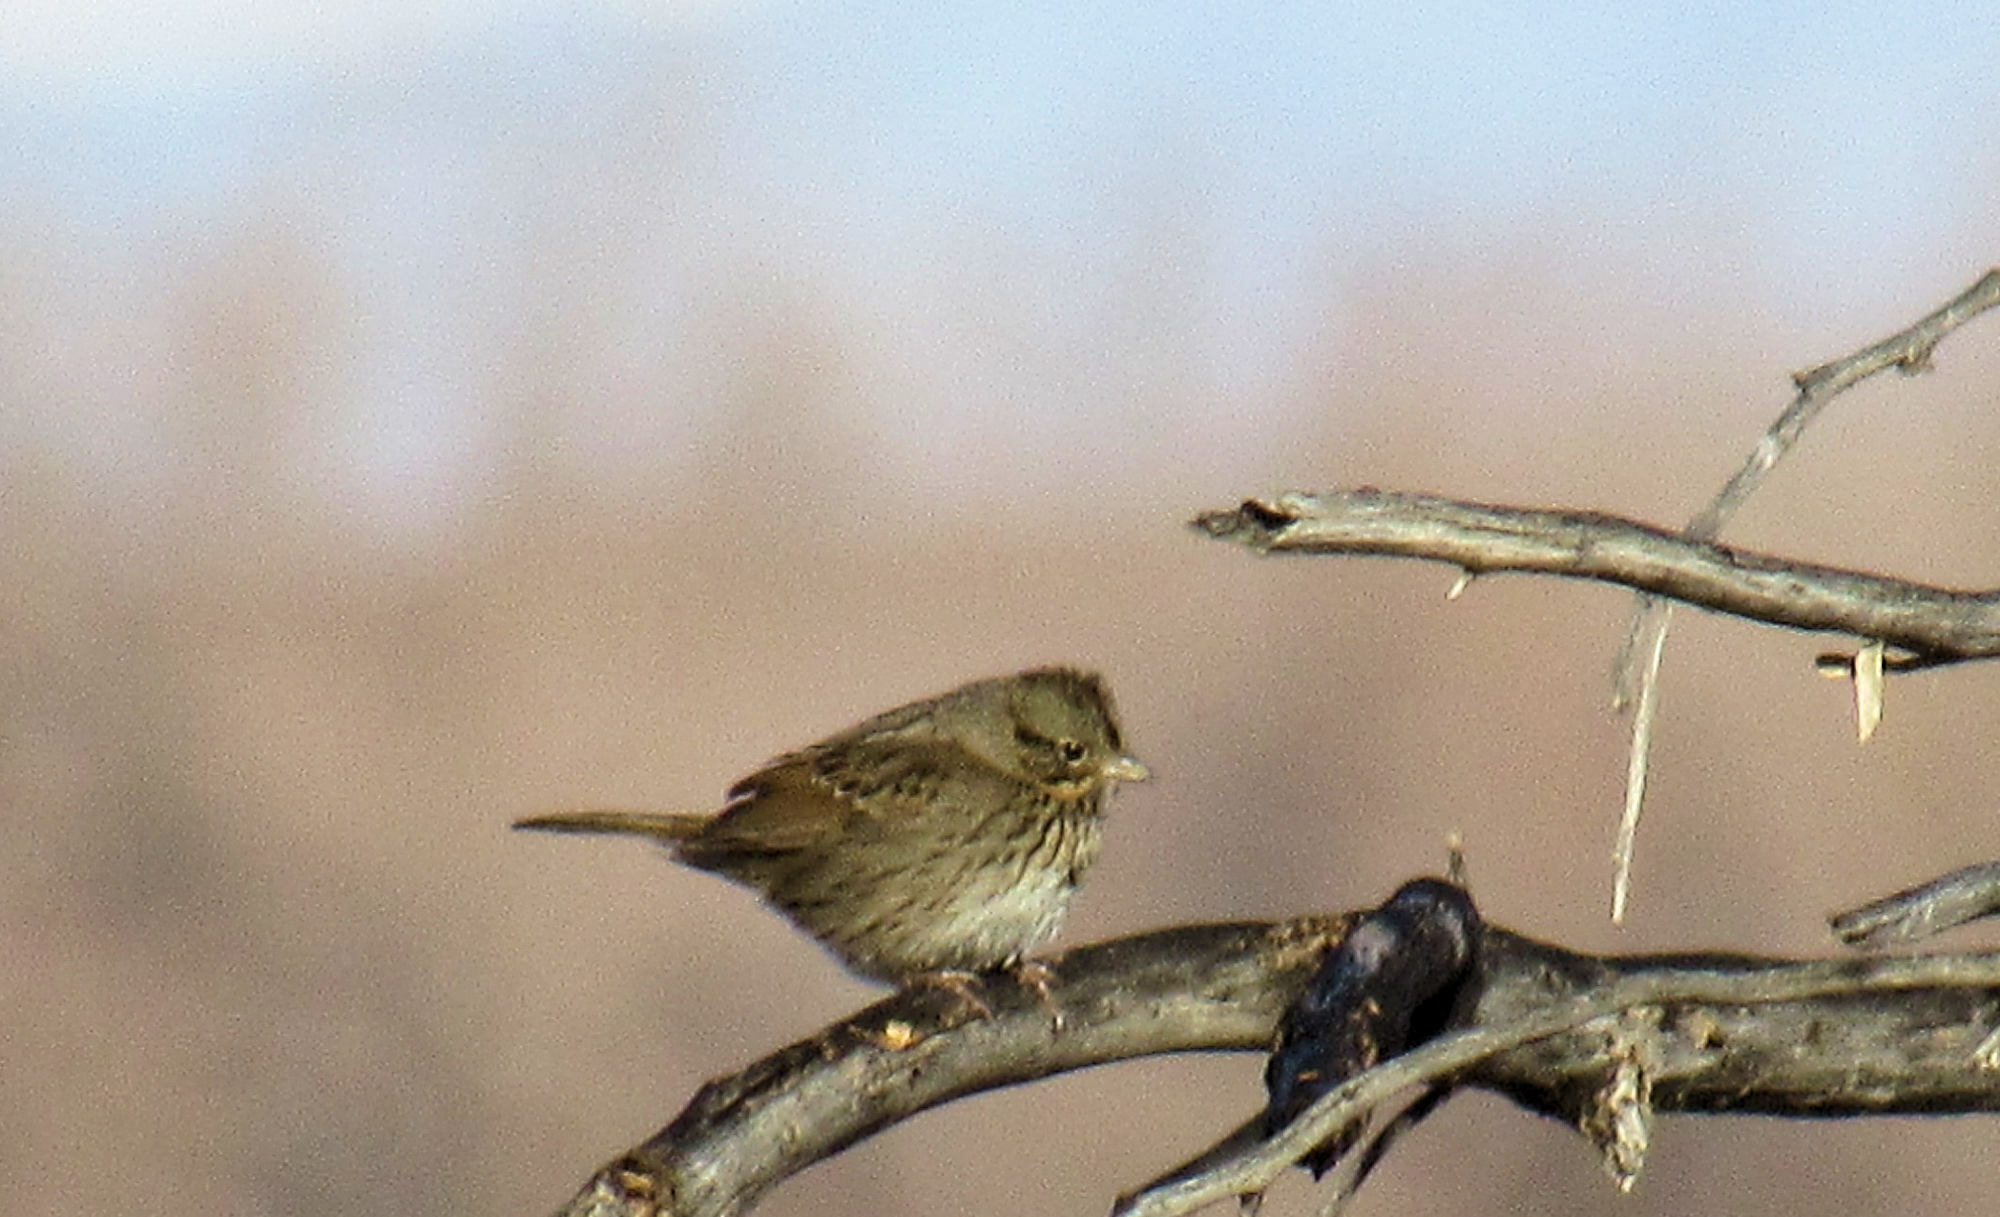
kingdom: Animalia
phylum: Chordata
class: Aves
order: Passeriformes
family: Passerellidae
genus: Melospiza
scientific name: Melospiza lincolnii
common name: Lincoln's sparrow
